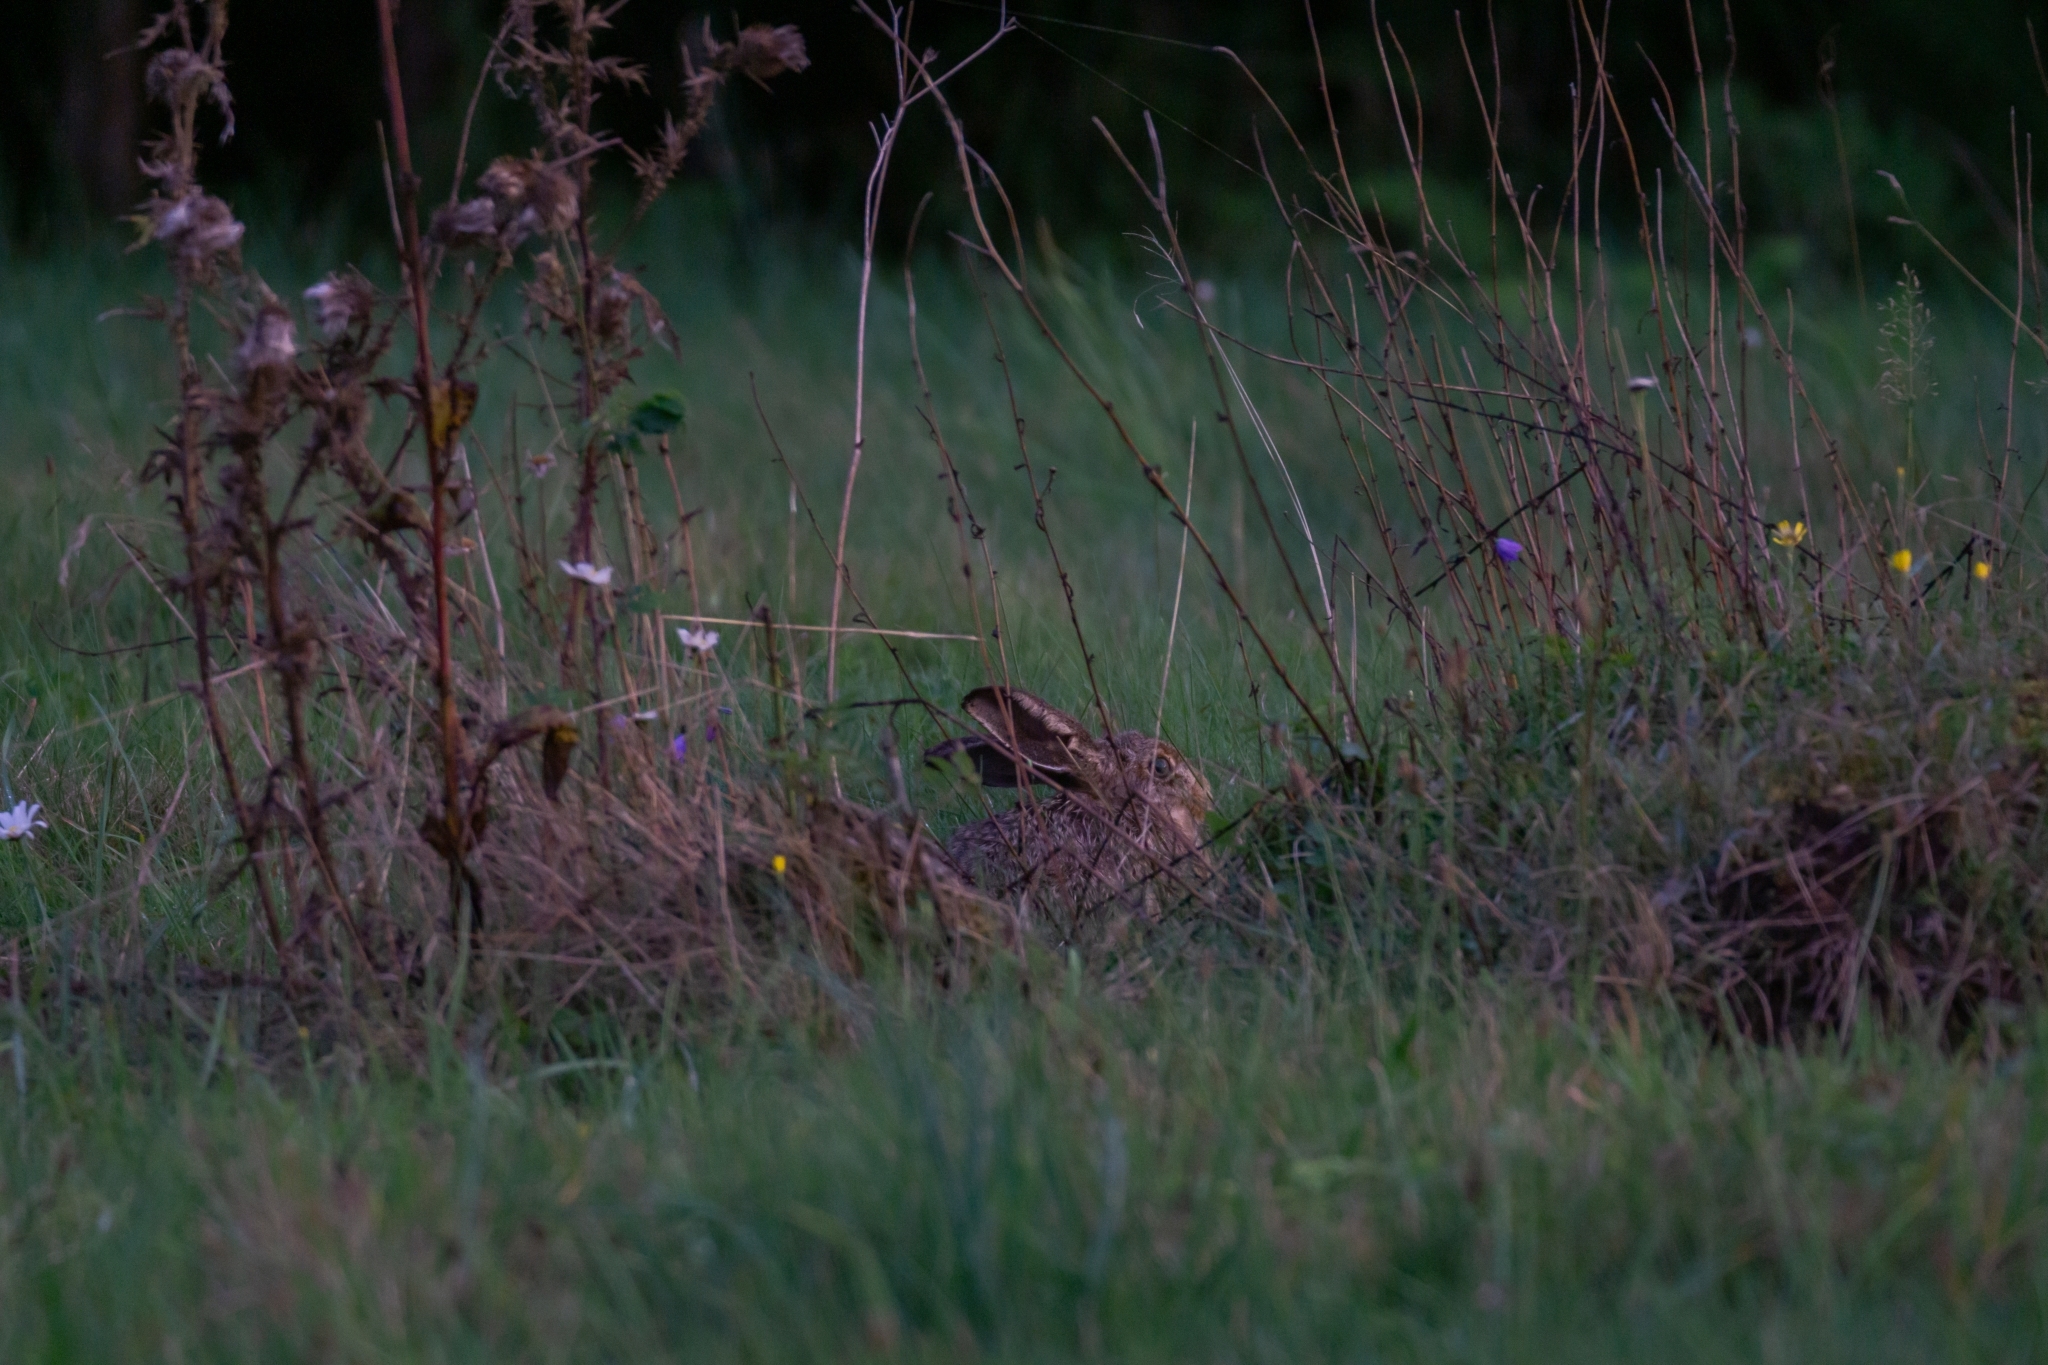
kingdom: Animalia
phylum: Chordata
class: Mammalia
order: Lagomorpha
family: Leporidae
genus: Lepus
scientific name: Lepus europaeus
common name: European hare
